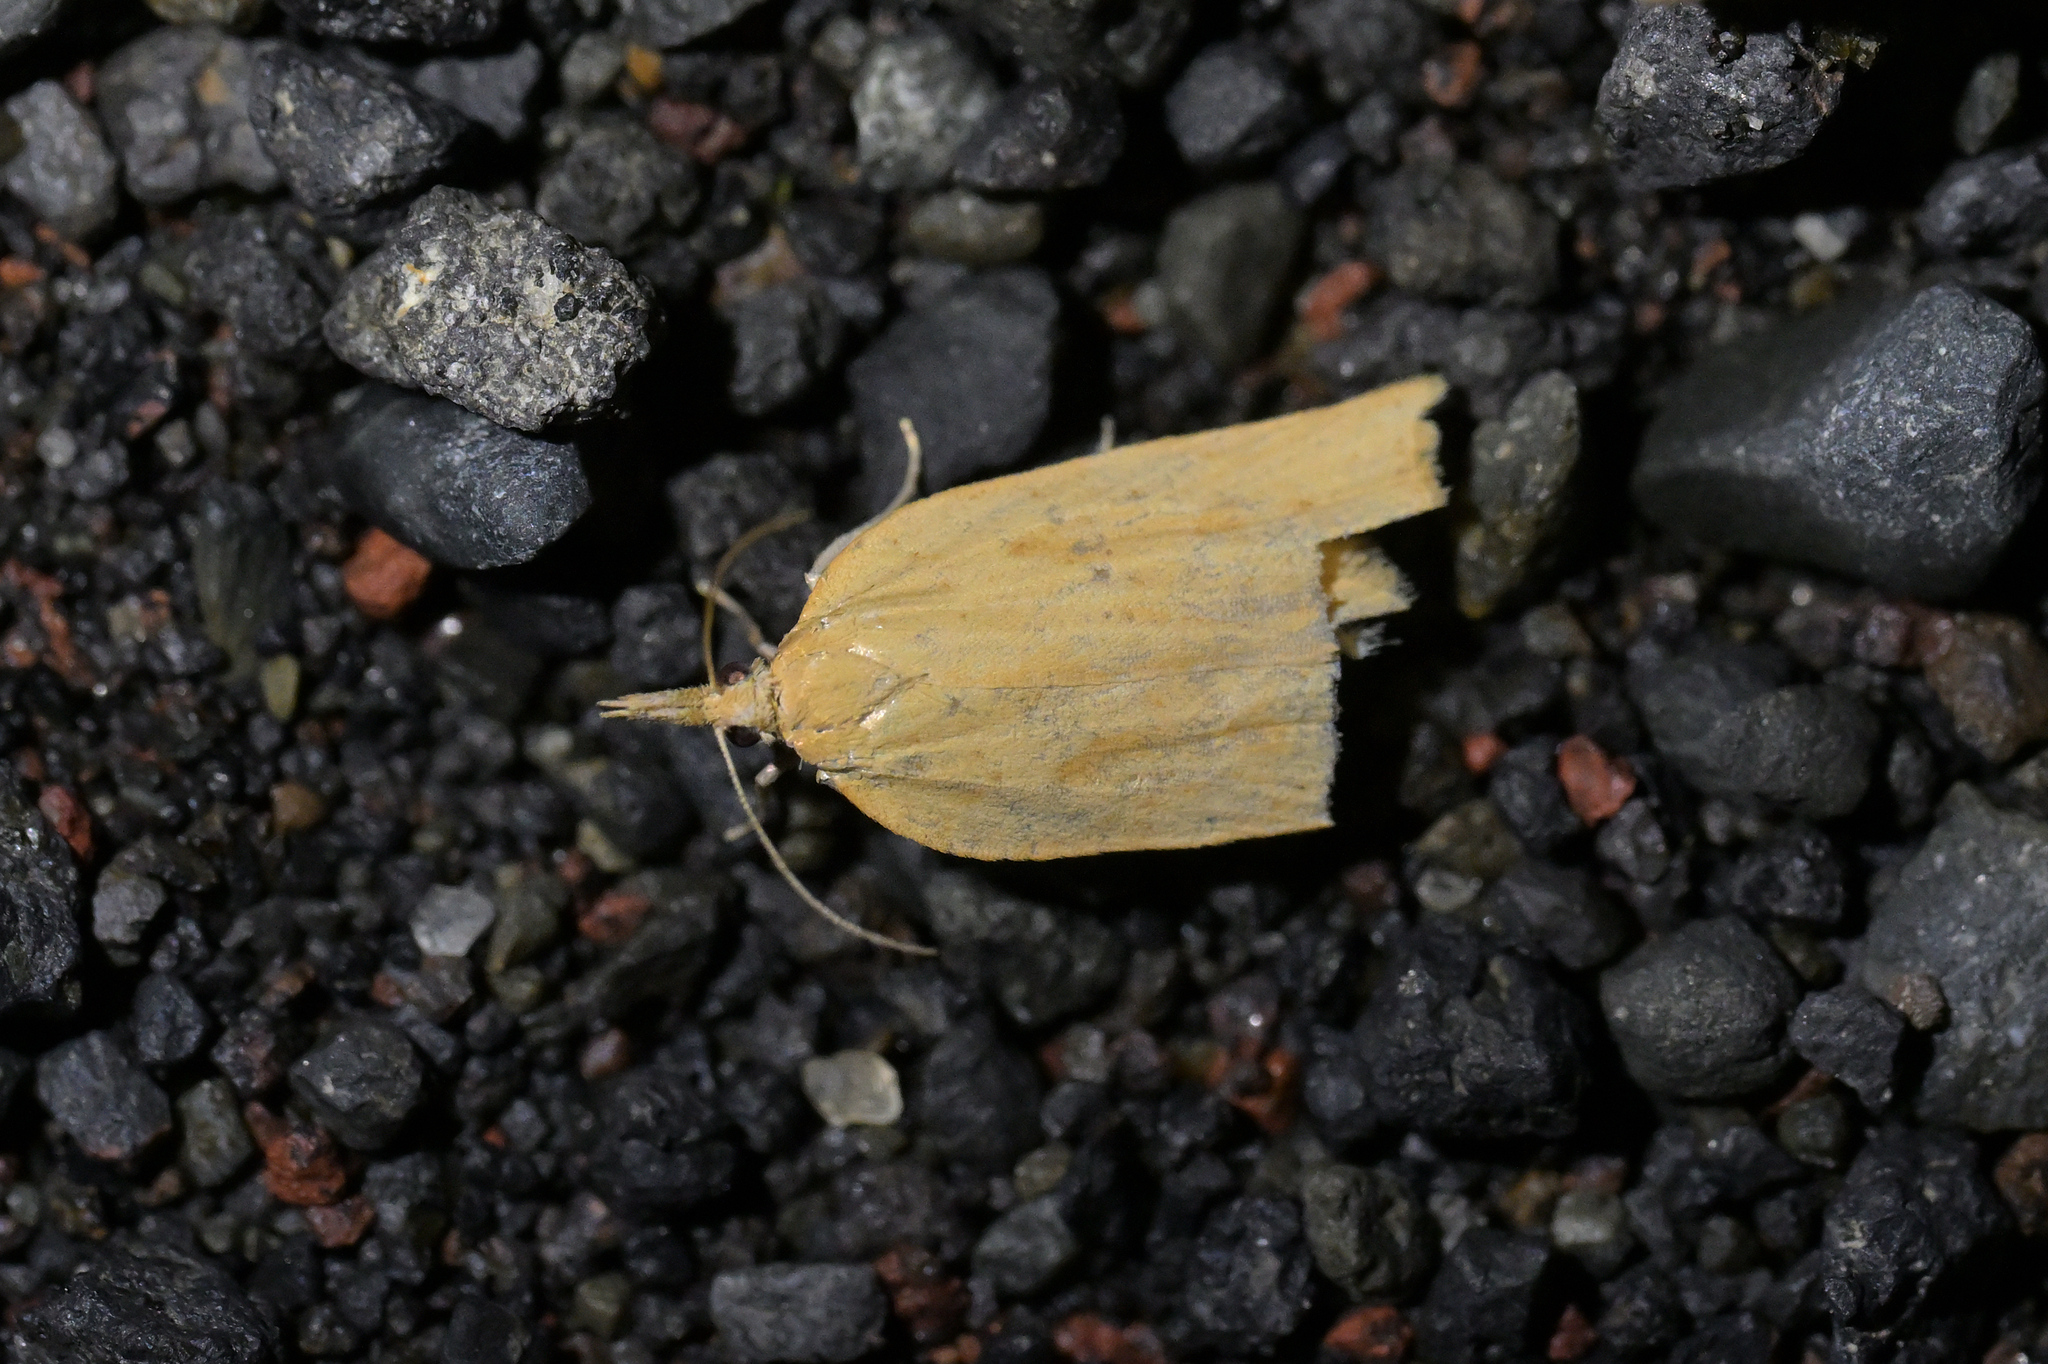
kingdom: Animalia
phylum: Arthropoda
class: Insecta
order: Lepidoptera
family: Tortricidae
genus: Clepsis
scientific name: Clepsis
